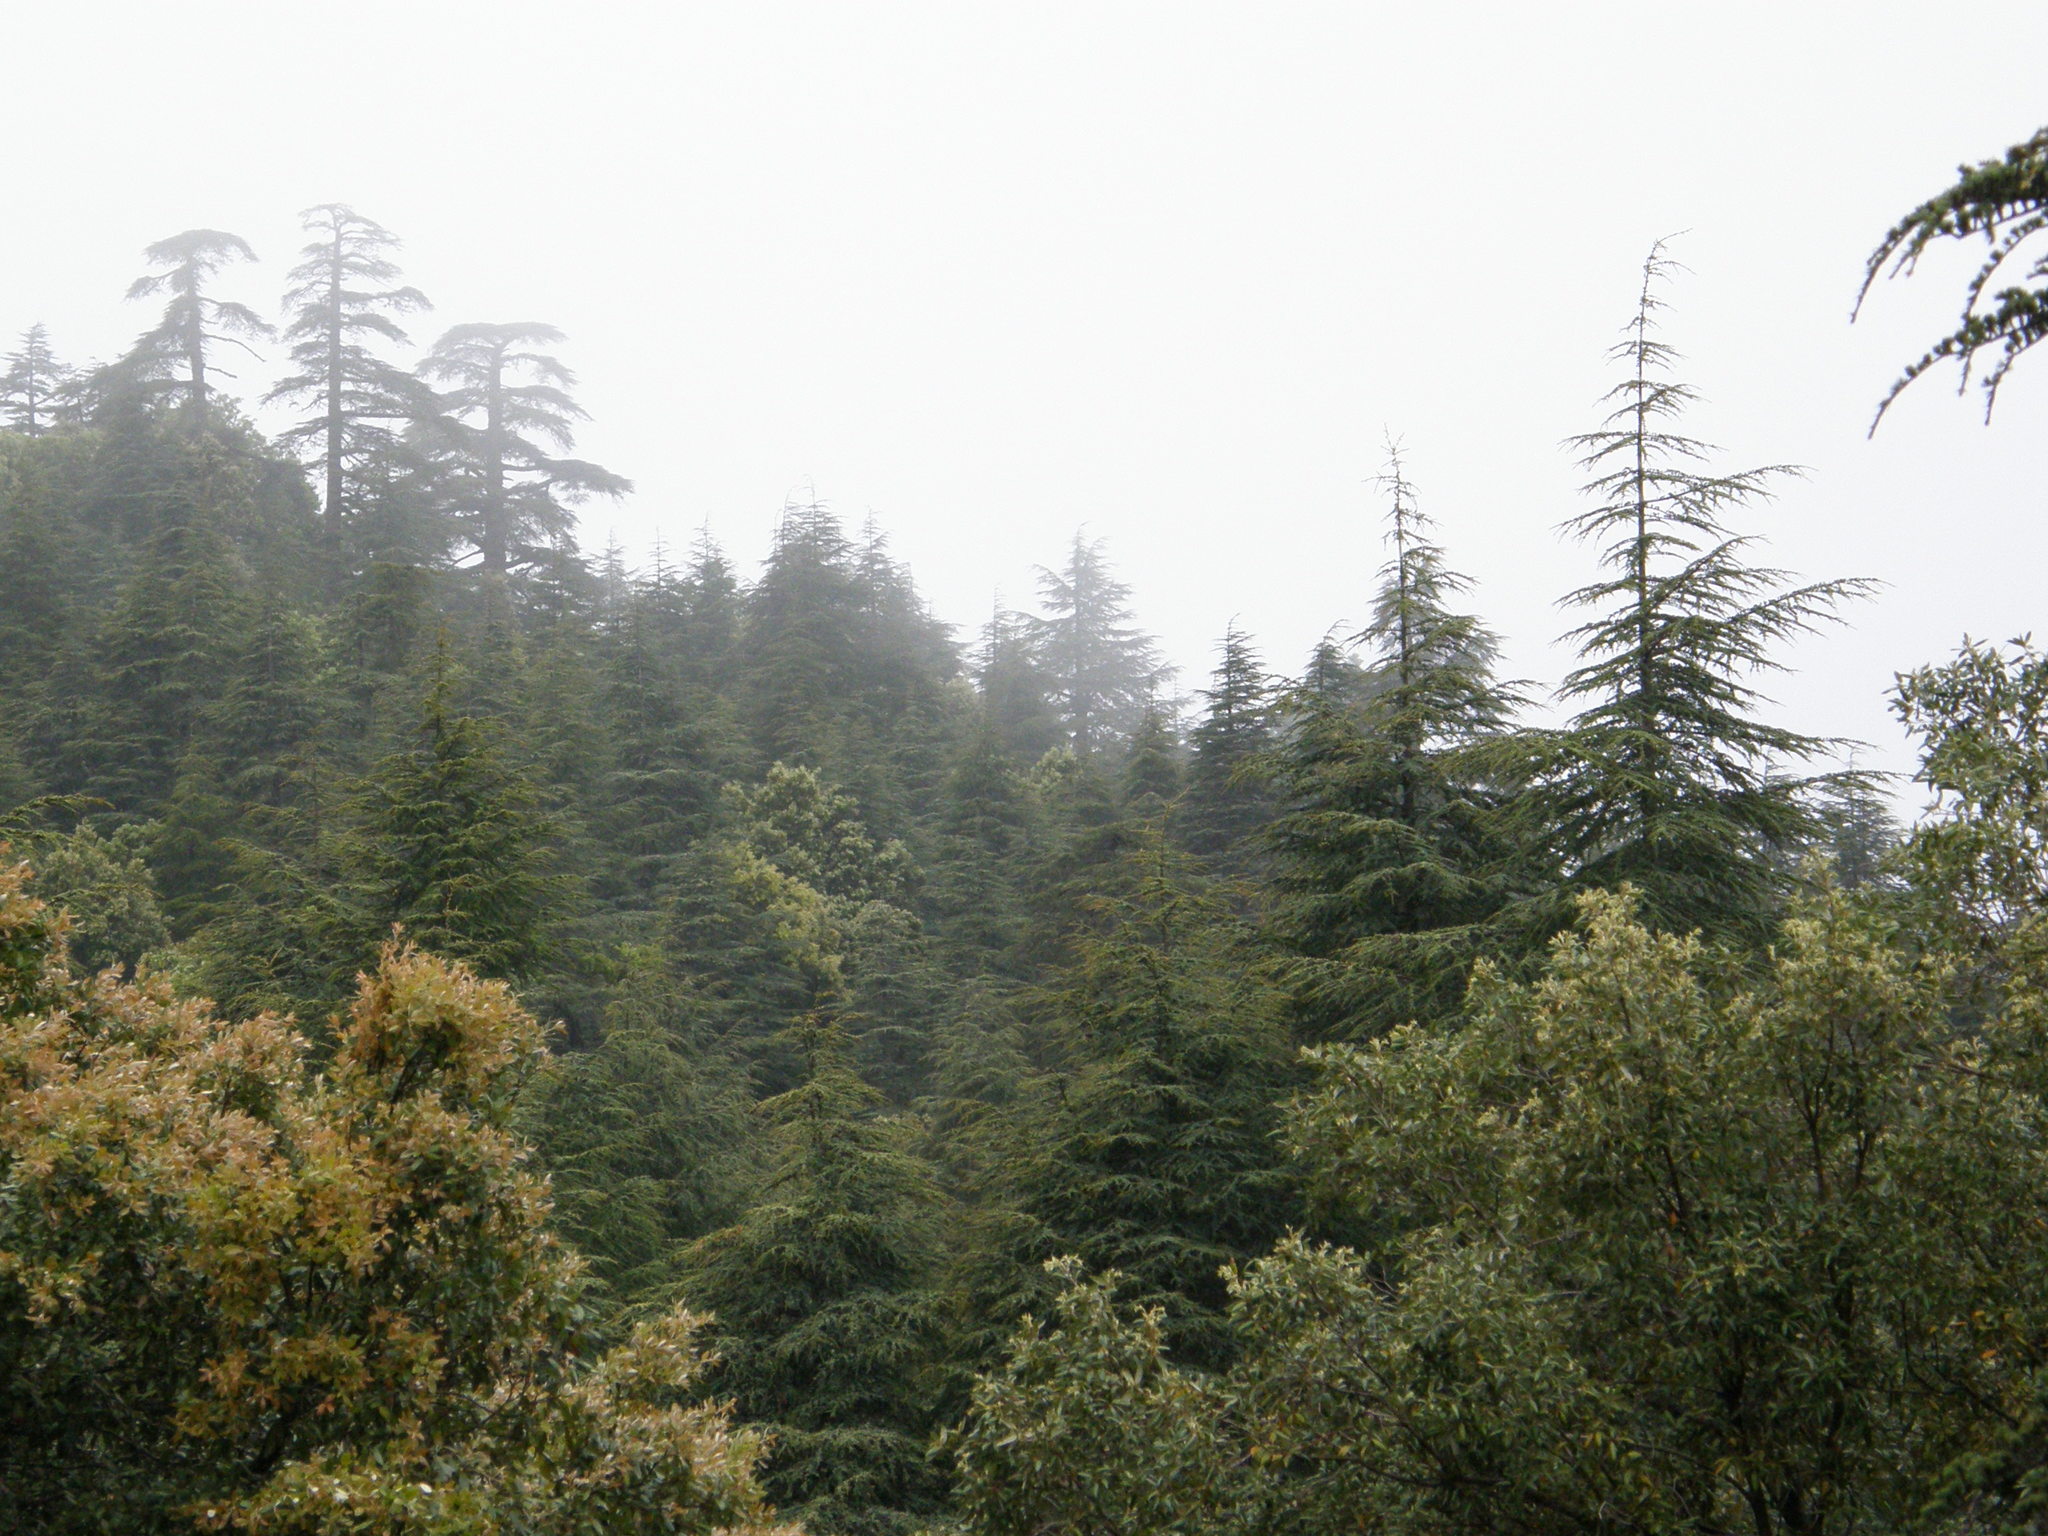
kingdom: Plantae
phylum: Tracheophyta
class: Pinopsida
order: Pinales
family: Pinaceae
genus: Cedrus
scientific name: Cedrus atlantica
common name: Atlas cedar
